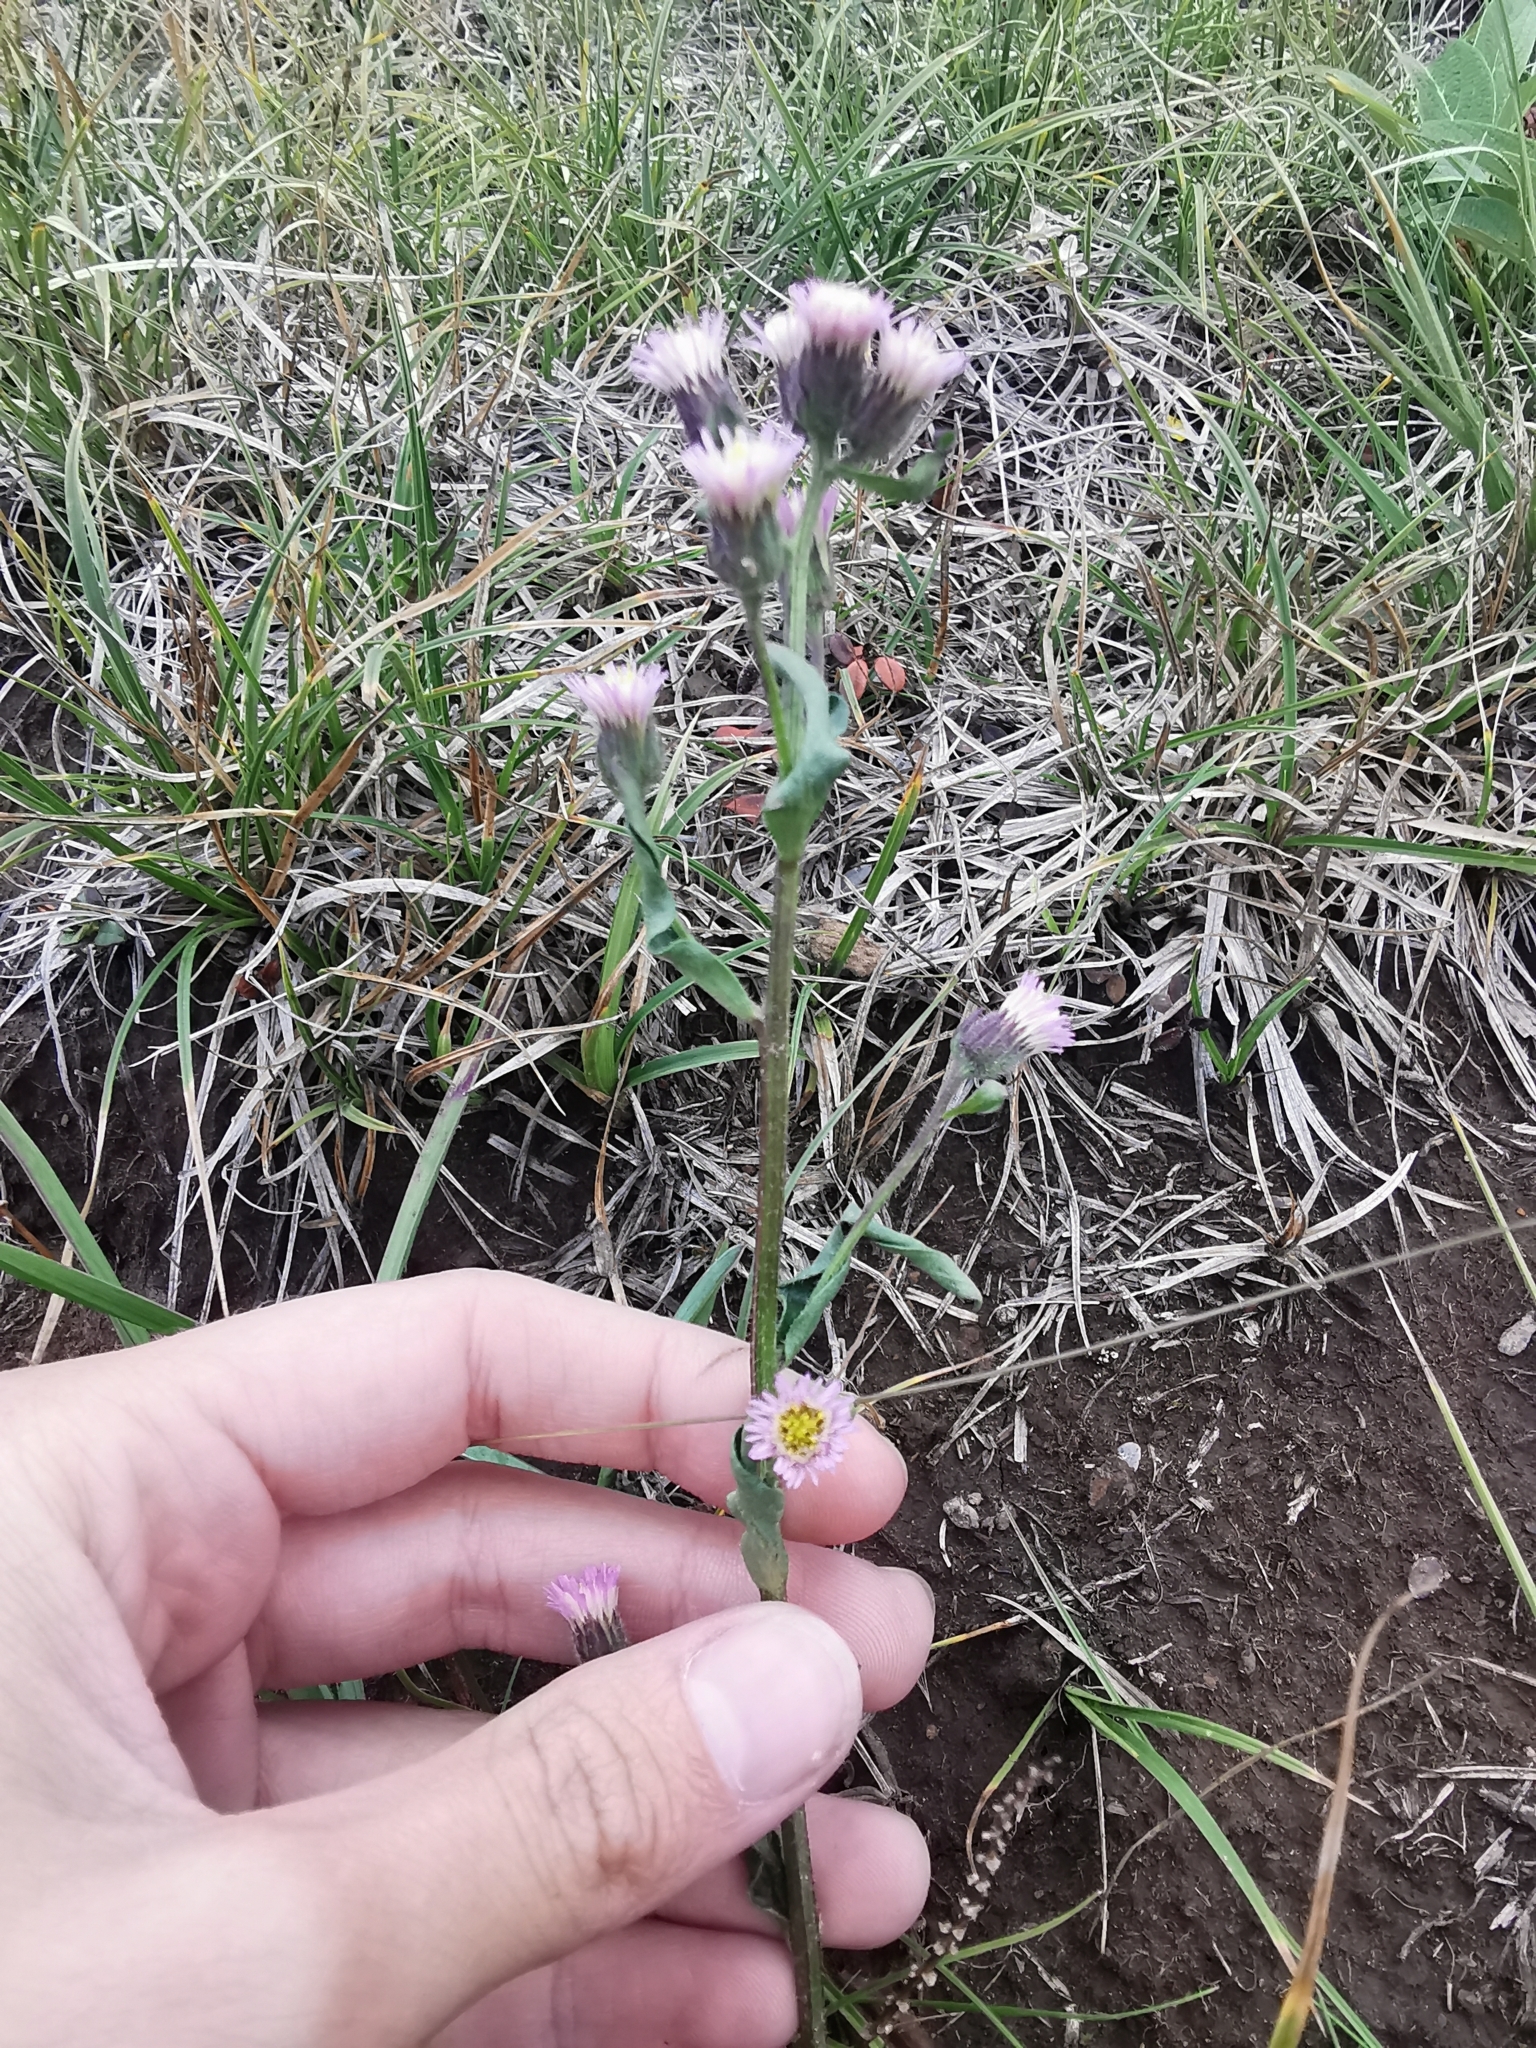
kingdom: Plantae
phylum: Tracheophyta
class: Magnoliopsida
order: Asterales
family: Asteraceae
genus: Erigeron
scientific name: Erigeron kamtschaticus
